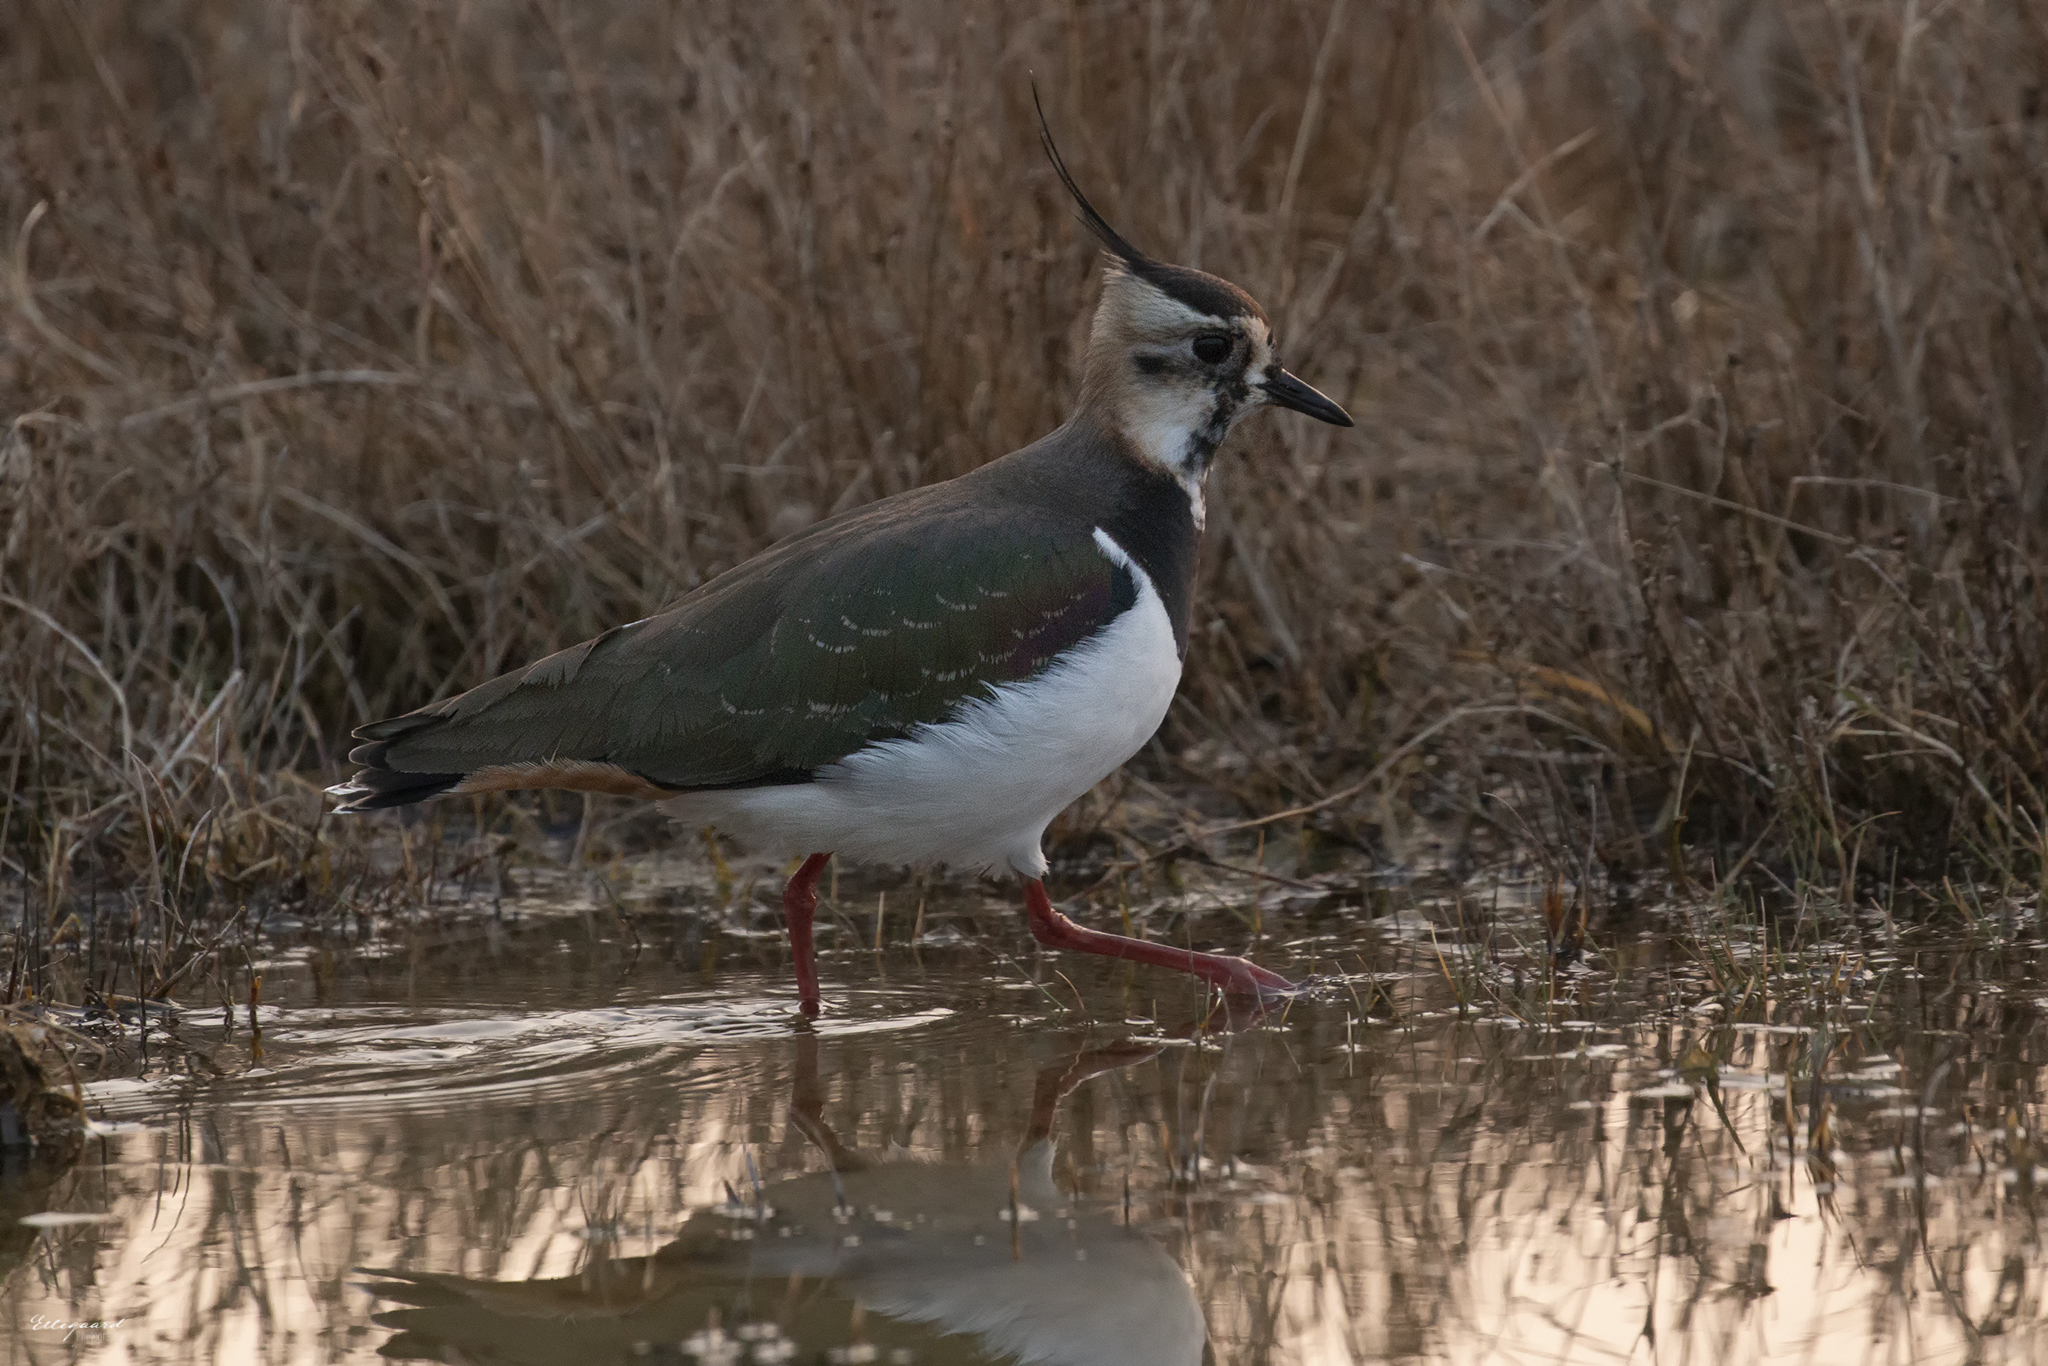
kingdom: Animalia
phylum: Chordata
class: Aves
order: Charadriiformes
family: Charadriidae
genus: Vanellus
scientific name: Vanellus vanellus
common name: Northern lapwing
